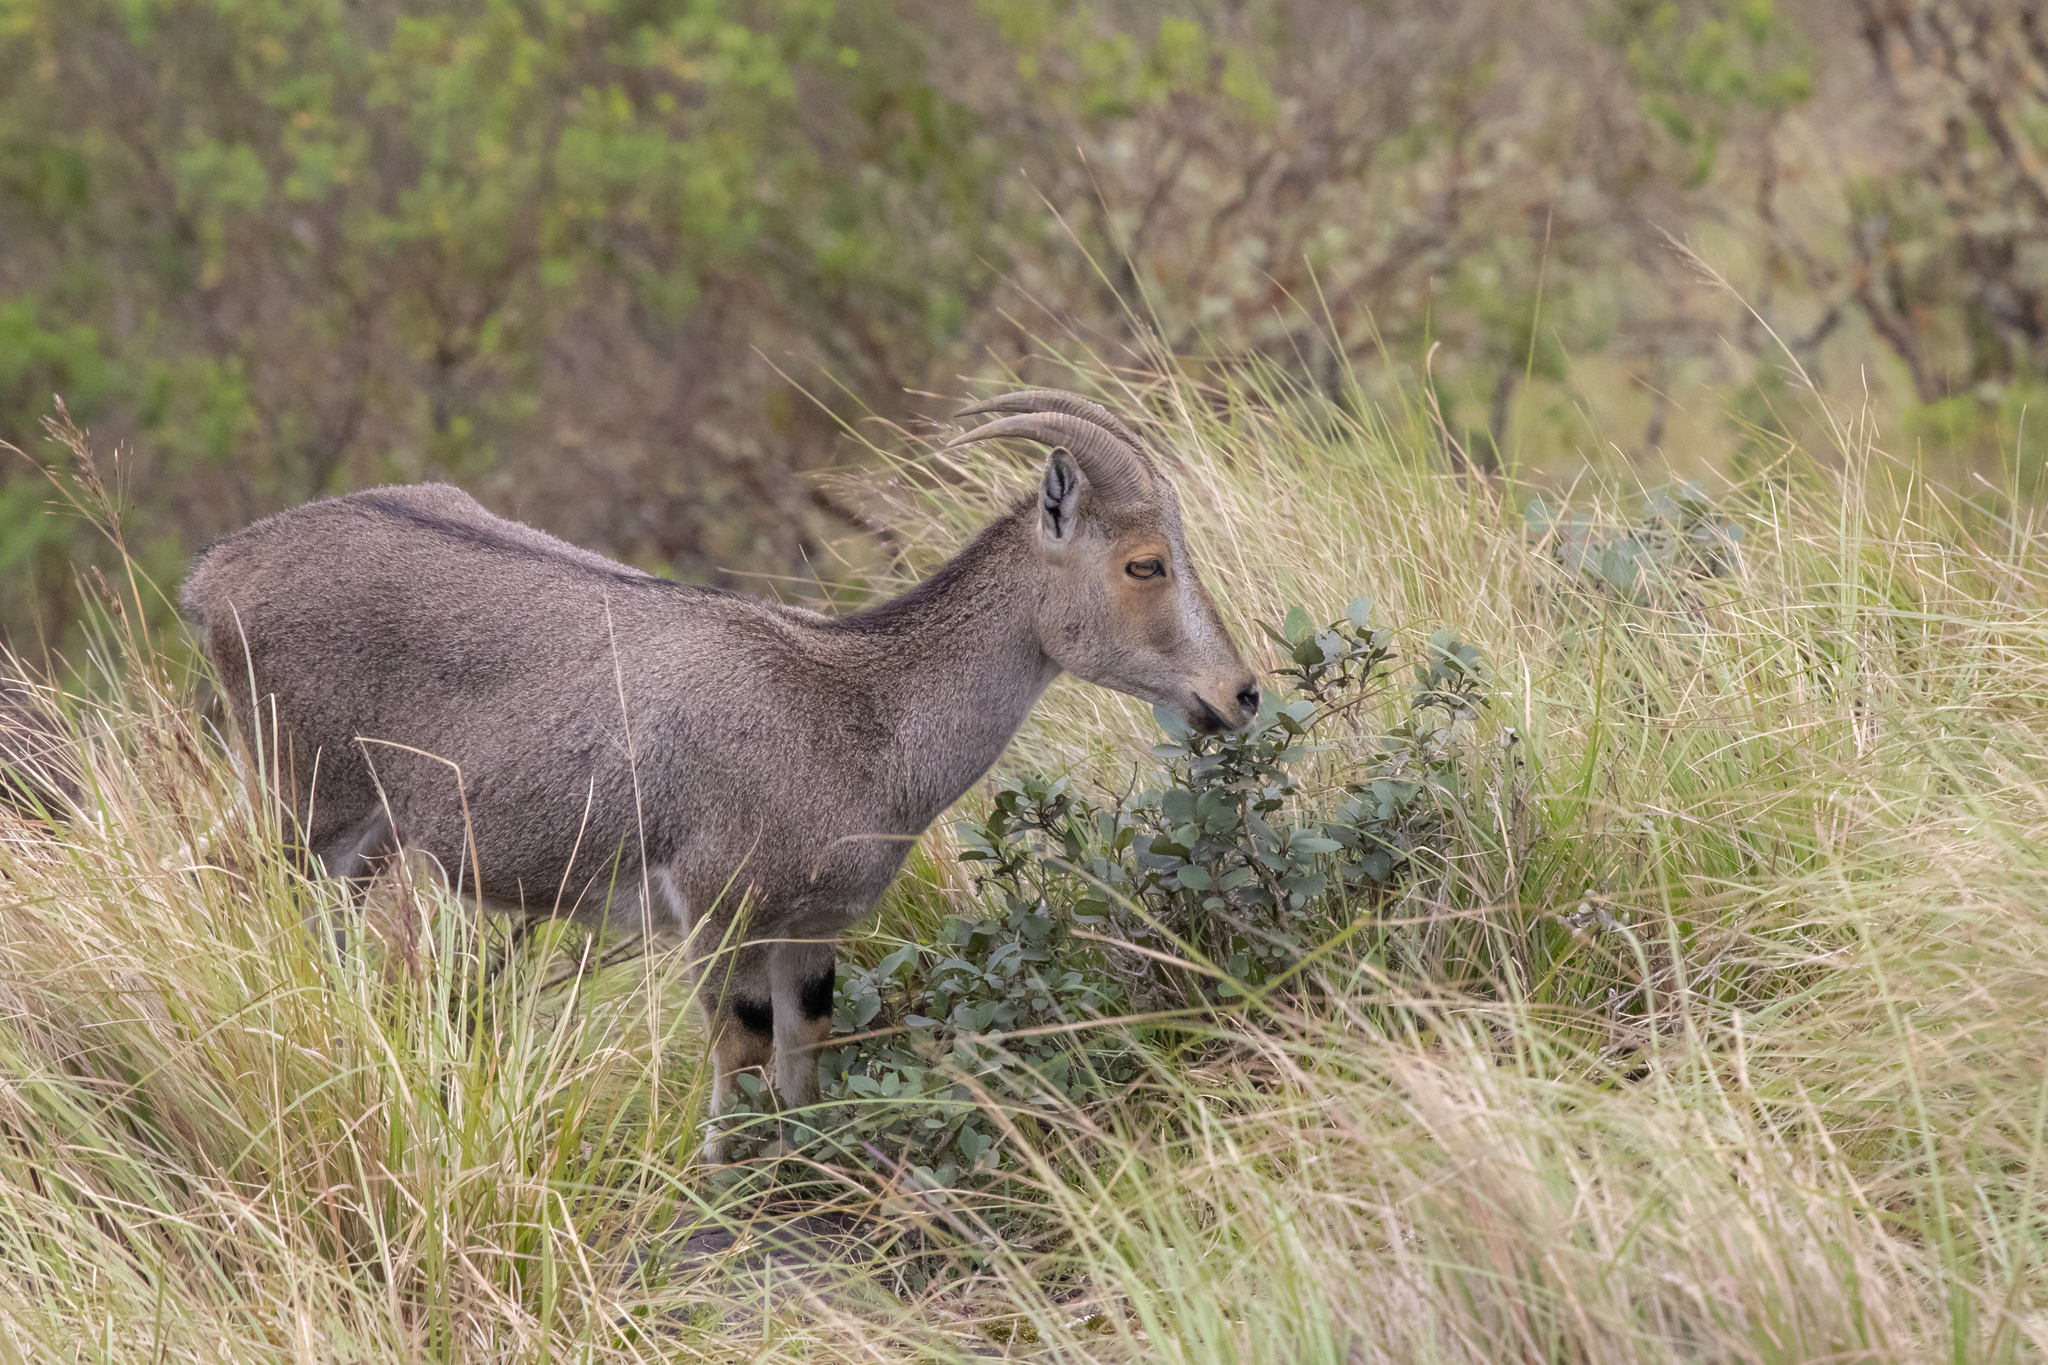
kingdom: Animalia
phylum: Chordata
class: Mammalia
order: Artiodactyla
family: Bovidae
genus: Hemitragus
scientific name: Hemitragus hylocrius
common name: Nilgiri tahr
